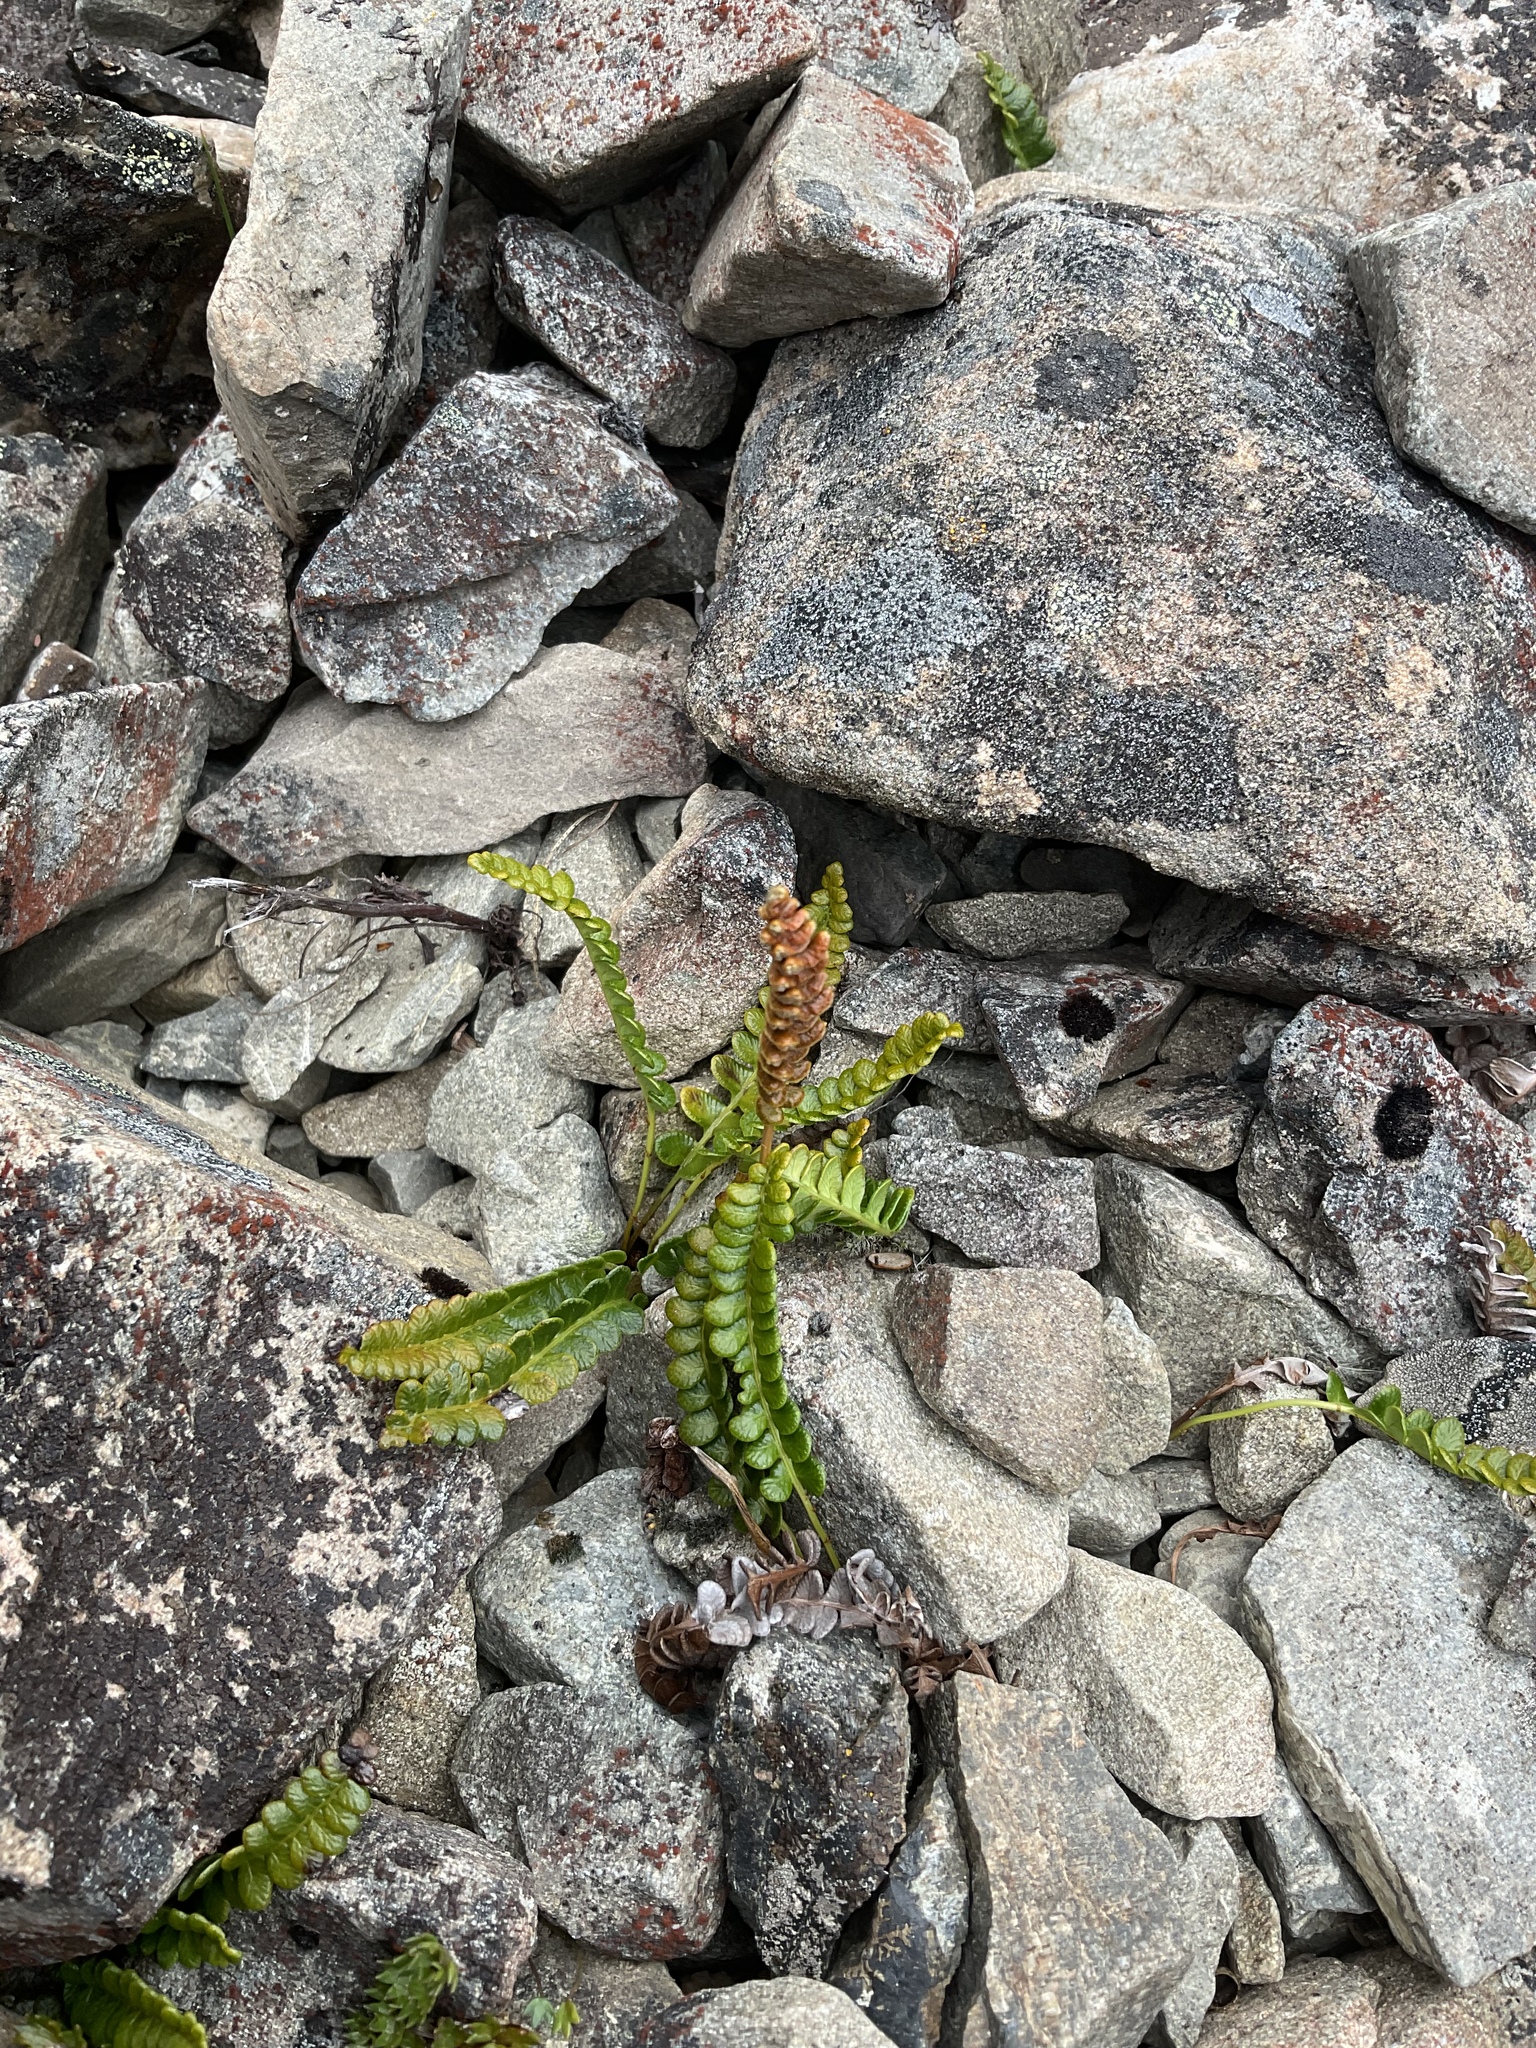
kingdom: Plantae
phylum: Tracheophyta
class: Polypodiopsida
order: Polypodiales
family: Blechnaceae
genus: Austroblechnum
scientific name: Austroblechnum penna-marina
